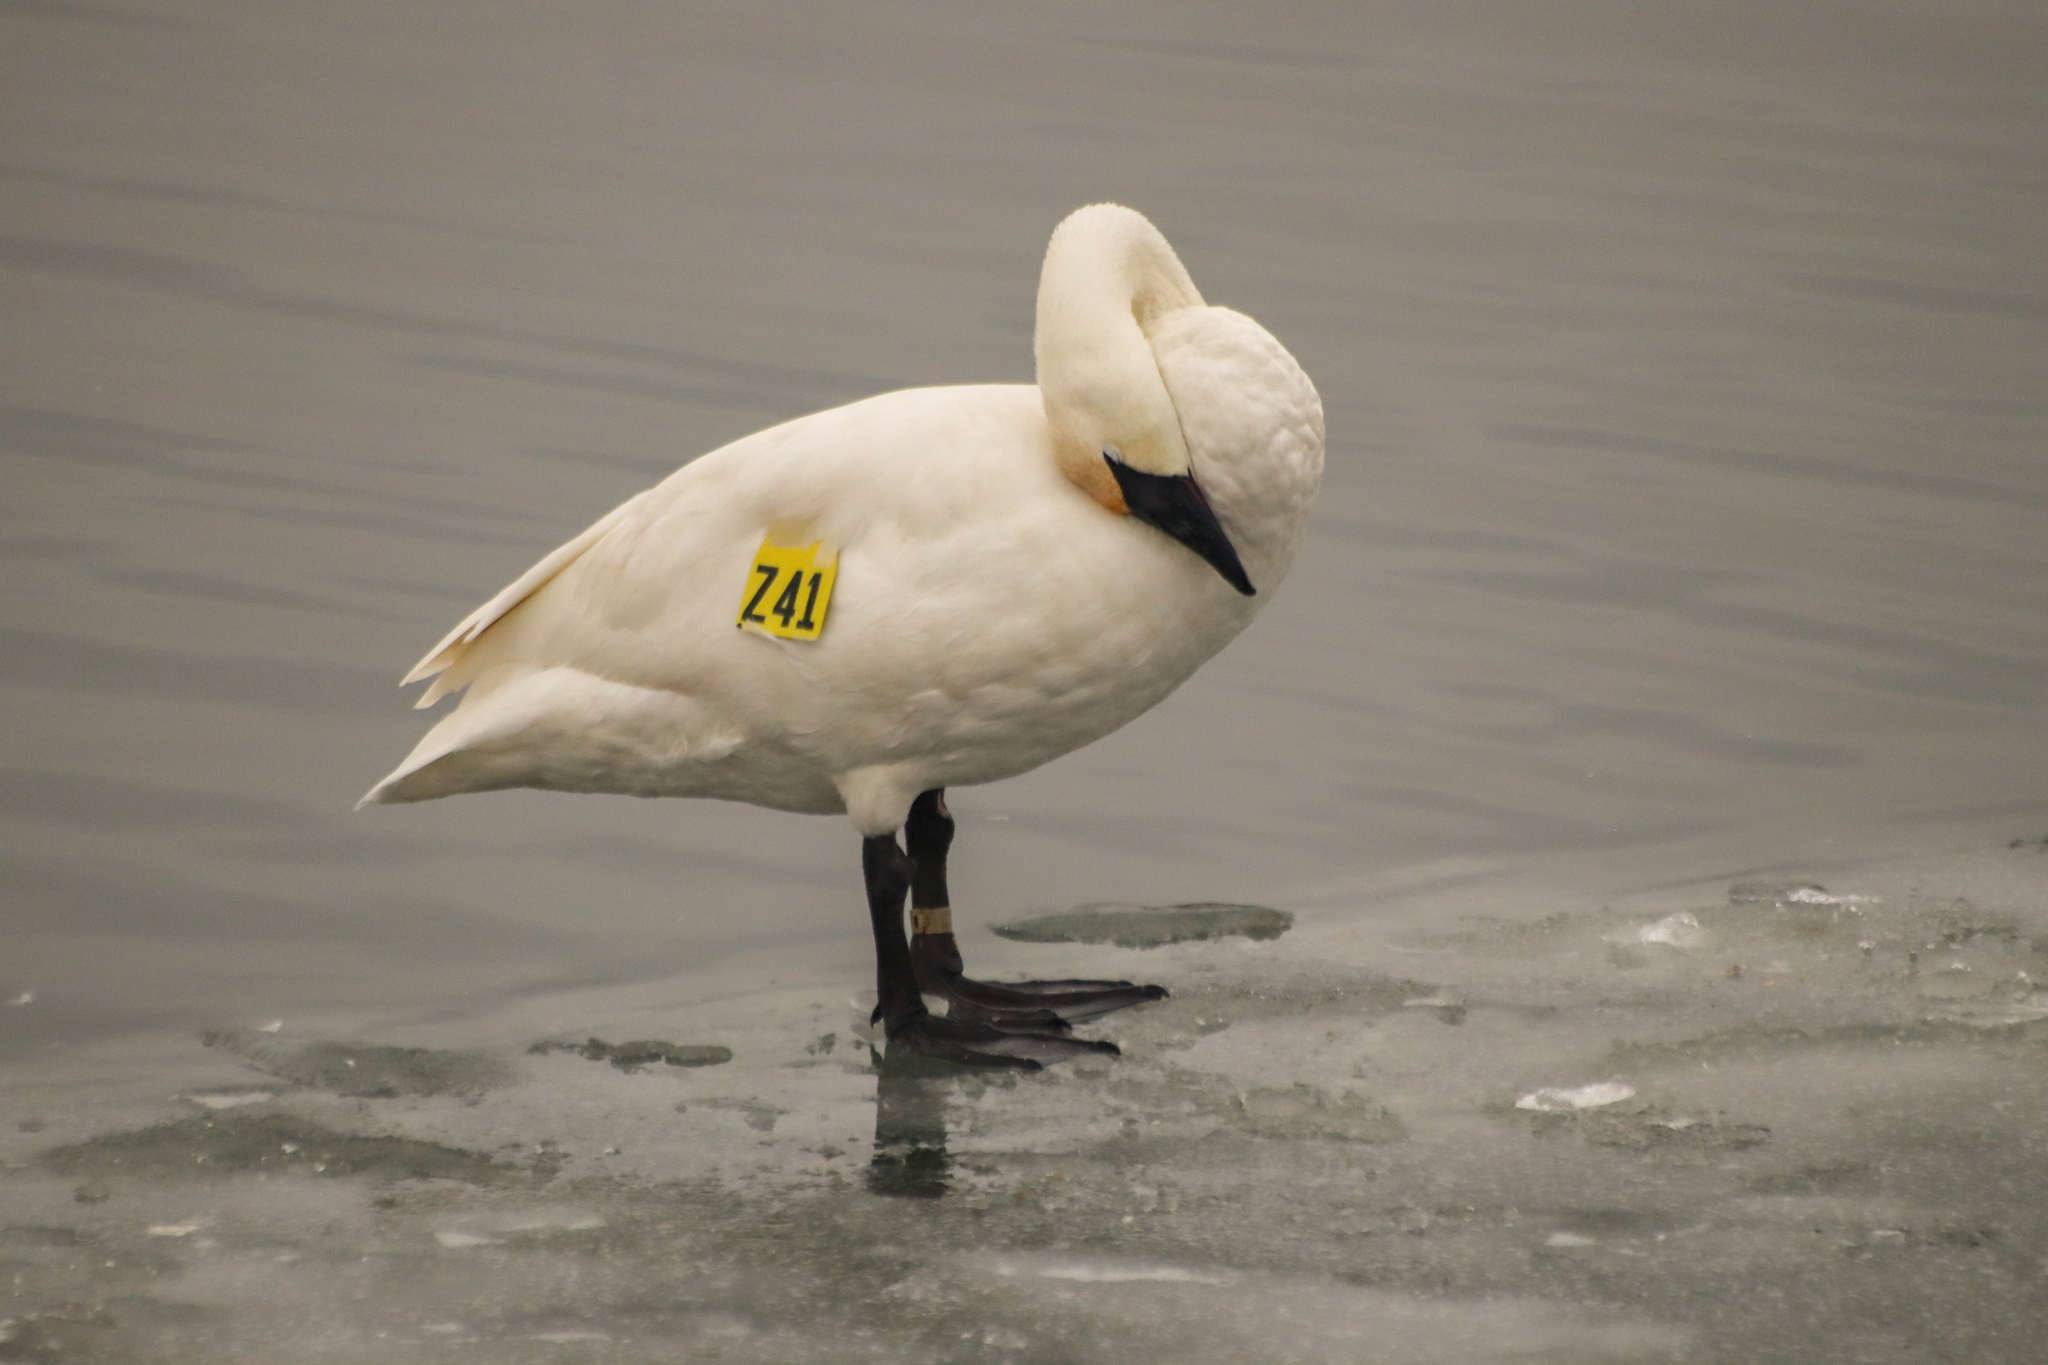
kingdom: Animalia
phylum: Chordata
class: Aves
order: Anseriformes
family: Anatidae
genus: Cygnus
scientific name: Cygnus buccinator
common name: Trumpeter swan
